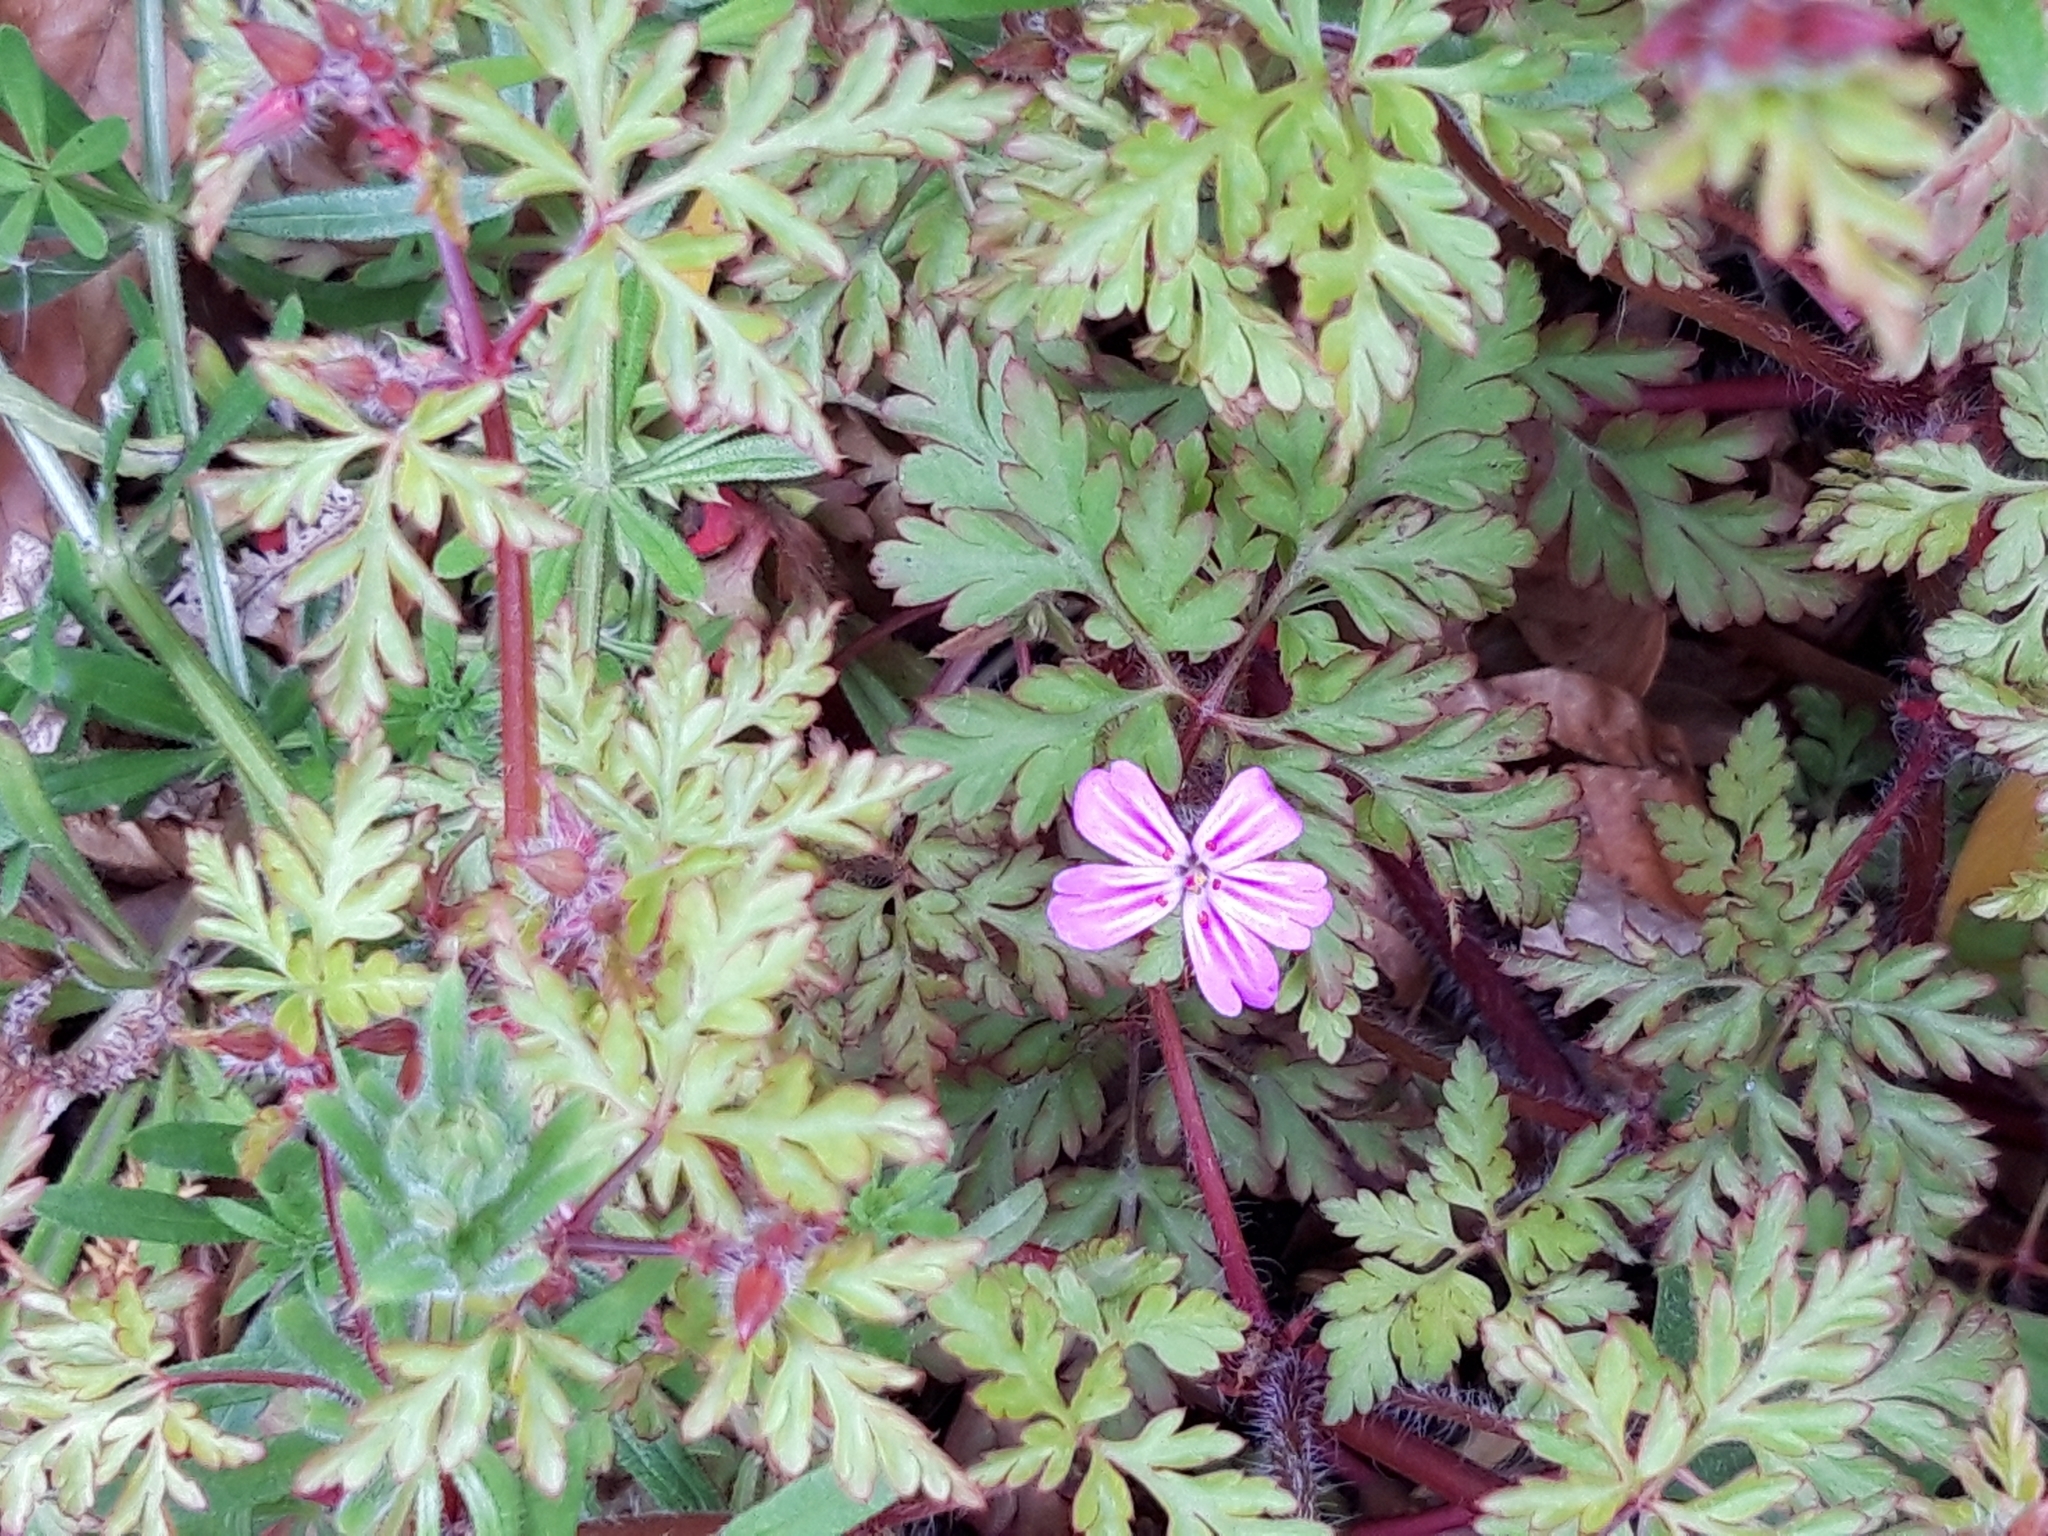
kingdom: Plantae
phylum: Tracheophyta
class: Magnoliopsida
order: Geraniales
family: Geraniaceae
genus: Geranium
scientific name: Geranium robertianum
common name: Herb-robert
